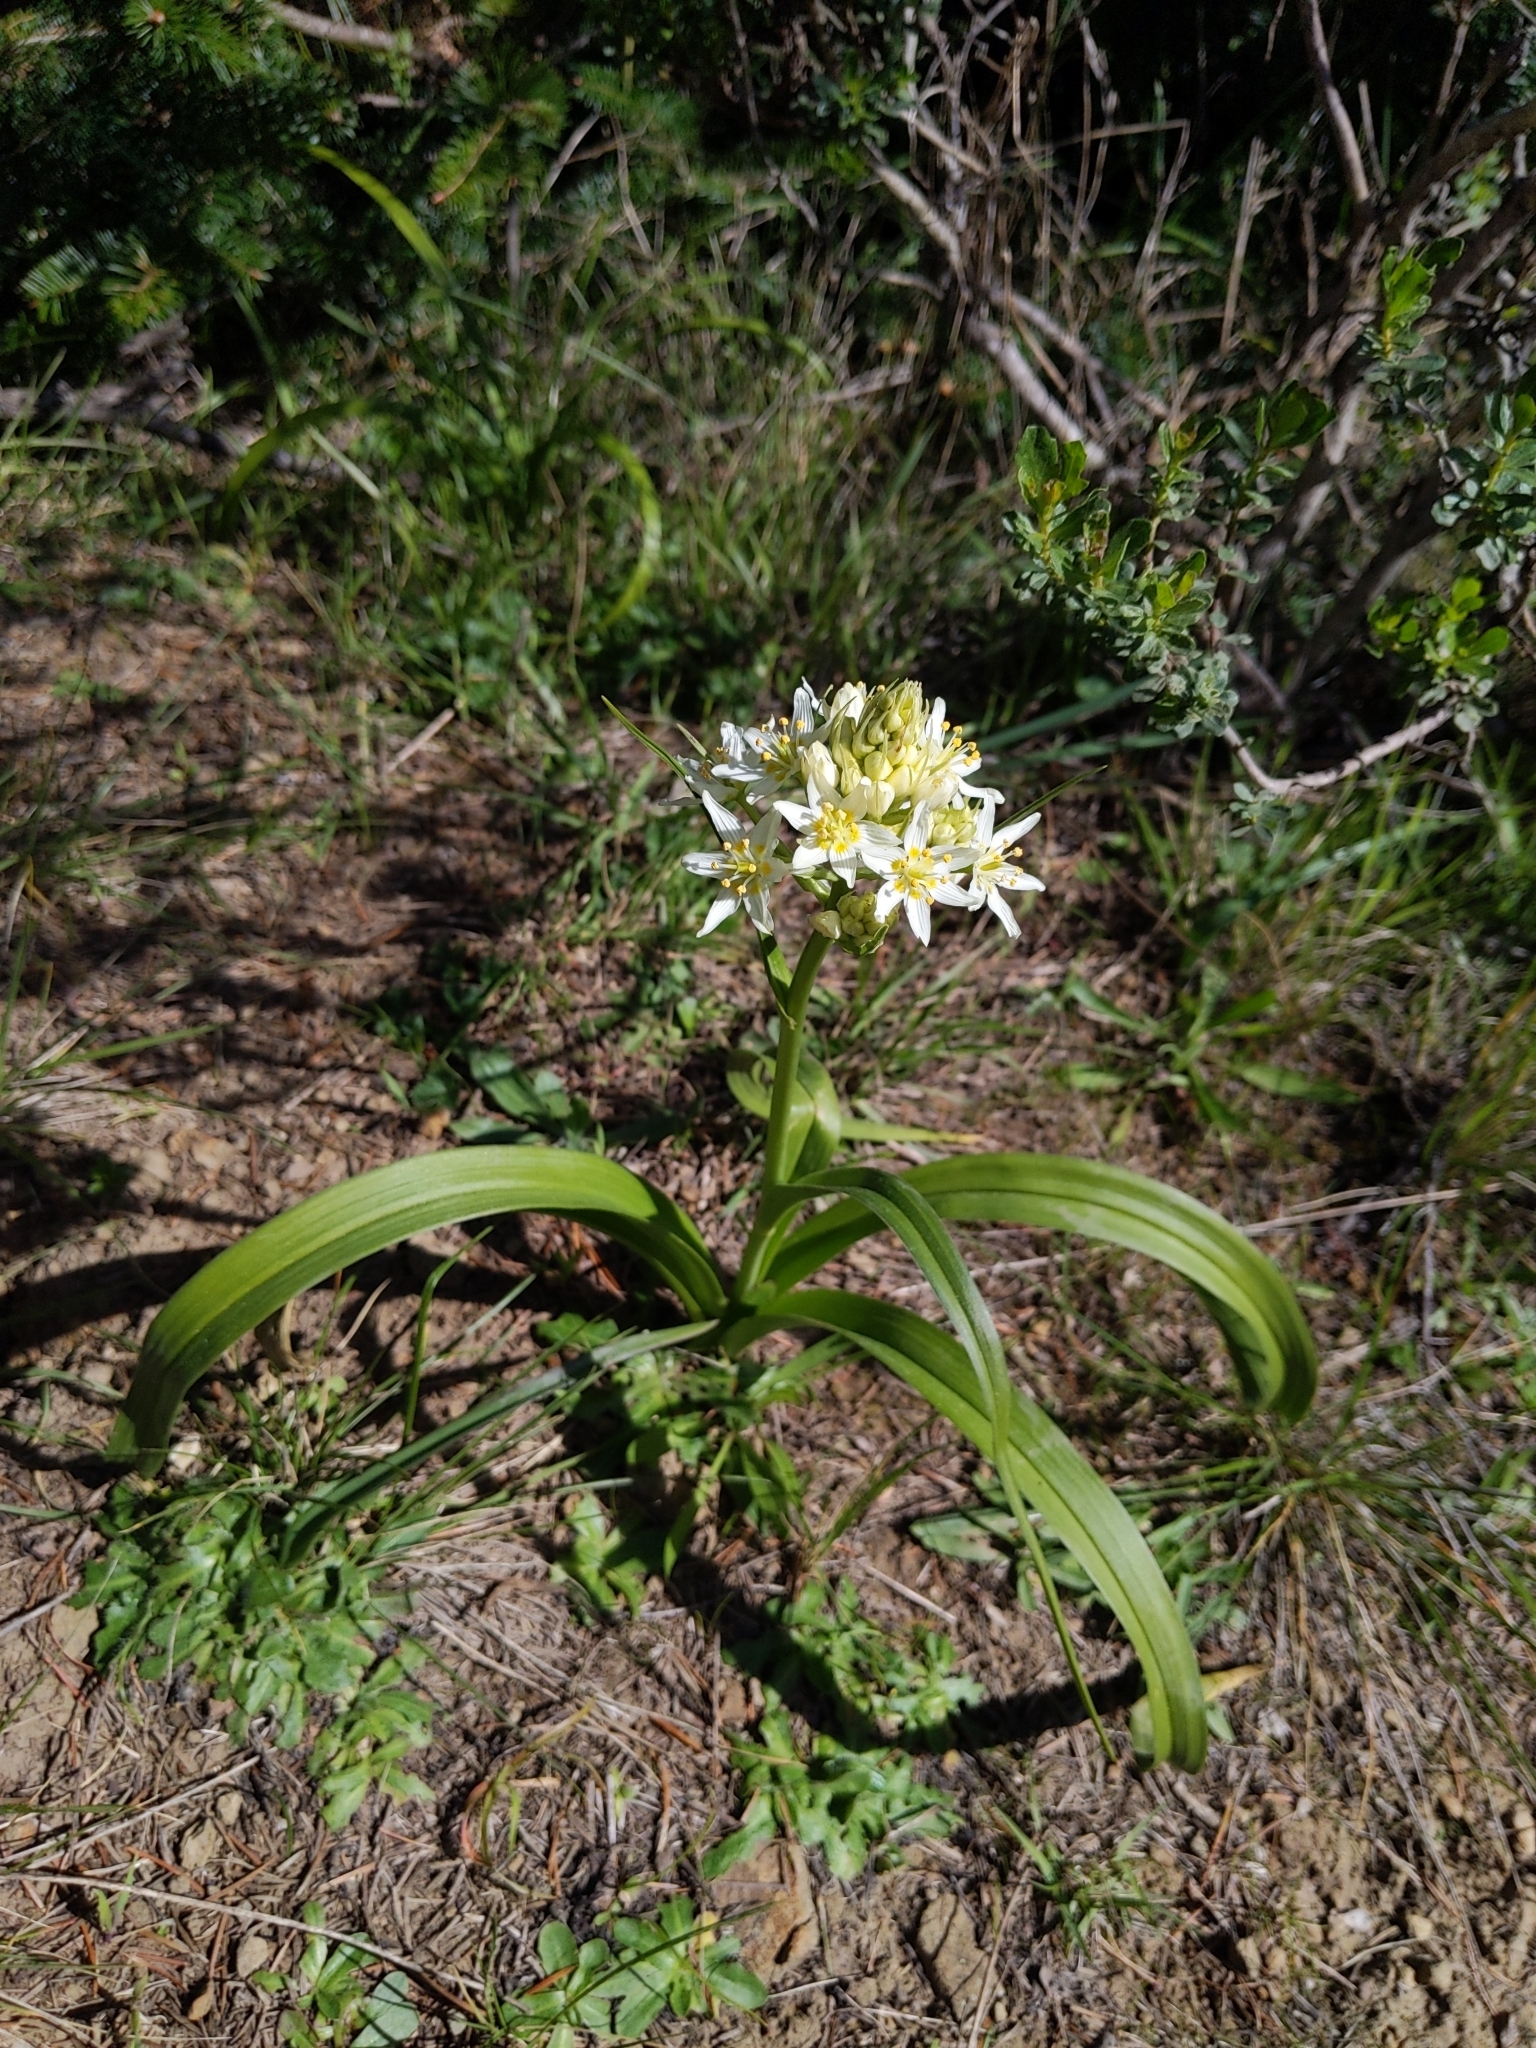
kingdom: Plantae
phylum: Tracheophyta
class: Liliopsida
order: Liliales
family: Melanthiaceae
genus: Toxicoscordion
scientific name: Toxicoscordion fremontii
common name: Fremont's death camas
